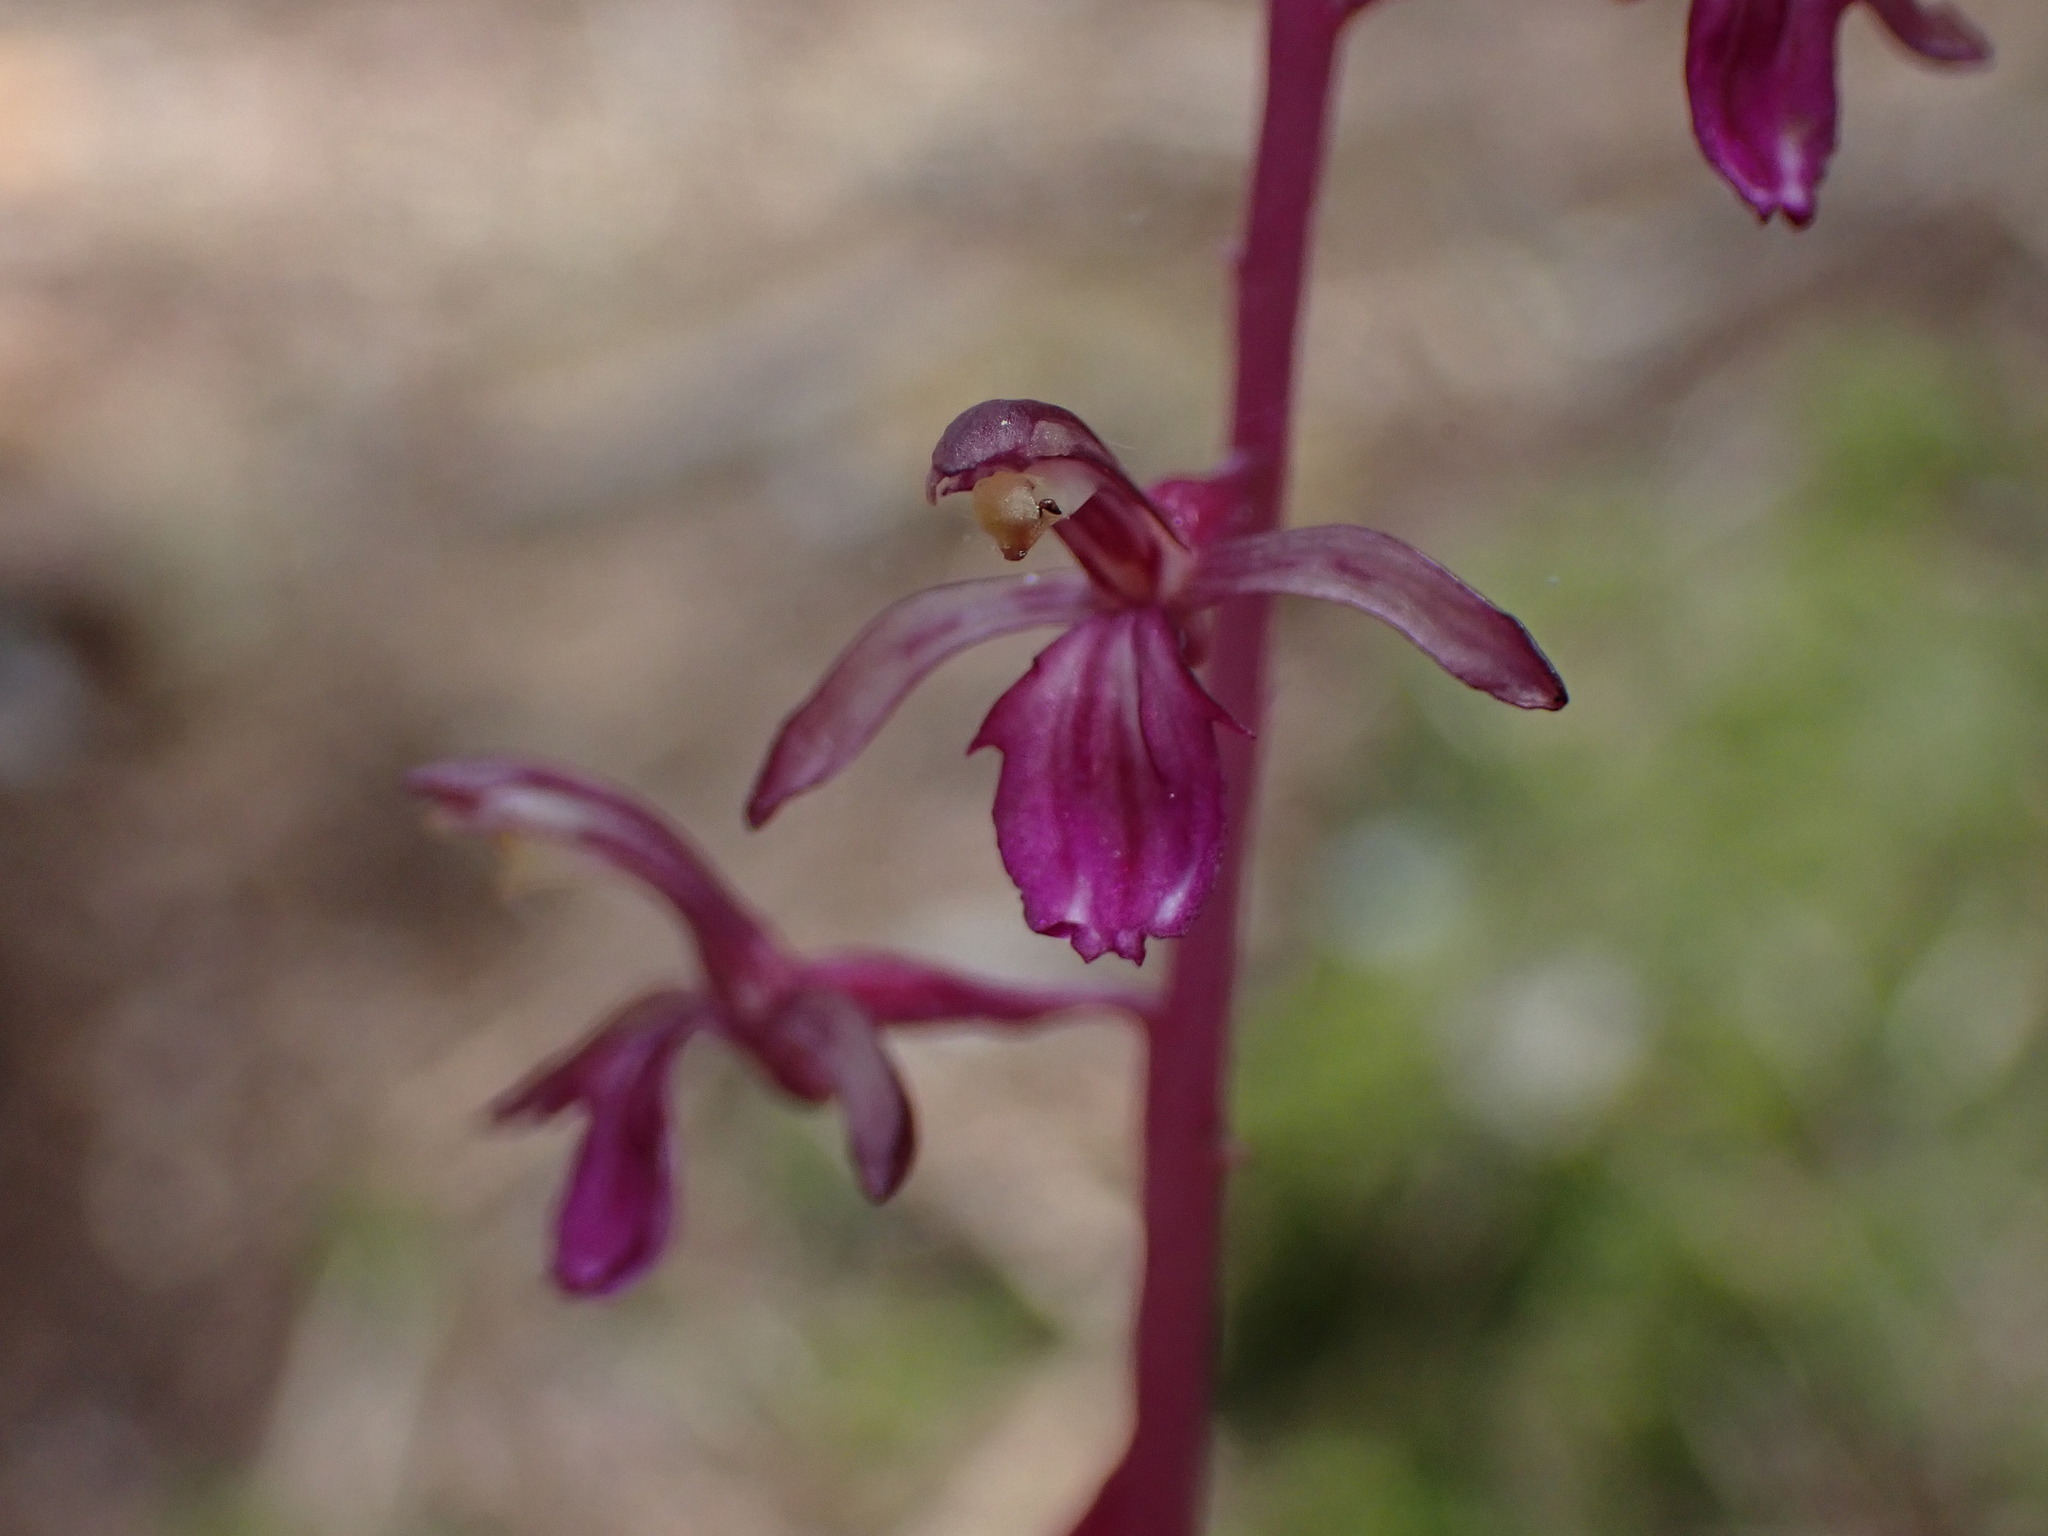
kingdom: Plantae
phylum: Tracheophyta
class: Liliopsida
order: Asparagales
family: Orchidaceae
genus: Corallorhiza
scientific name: Corallorhiza mertensiana
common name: Pacific coralroot
